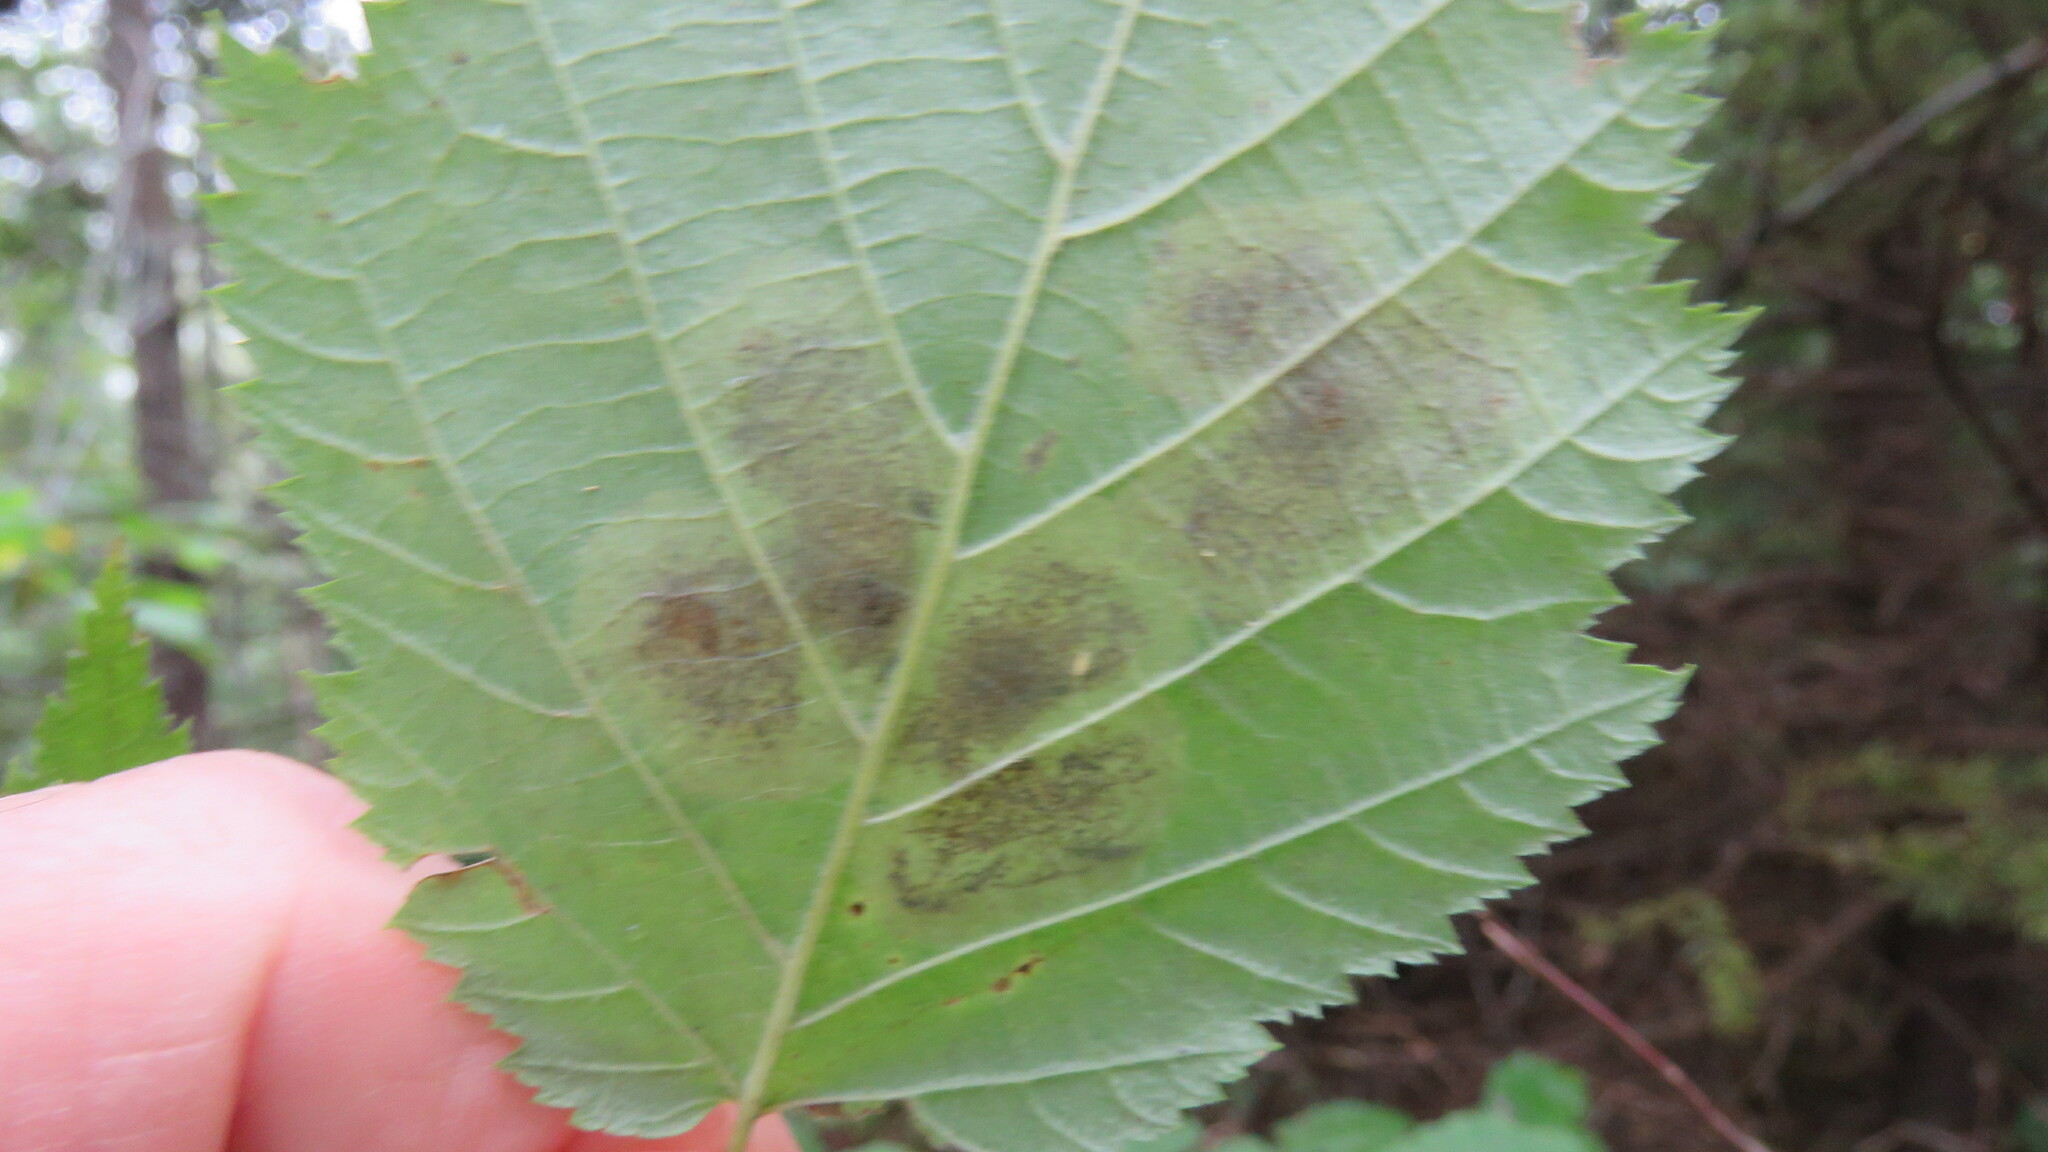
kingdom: Animalia
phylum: Arthropoda
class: Insecta
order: Lepidoptera
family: Gracillariidae
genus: Cameraria
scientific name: Cameraria corylisella
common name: Hazel blotchminer
